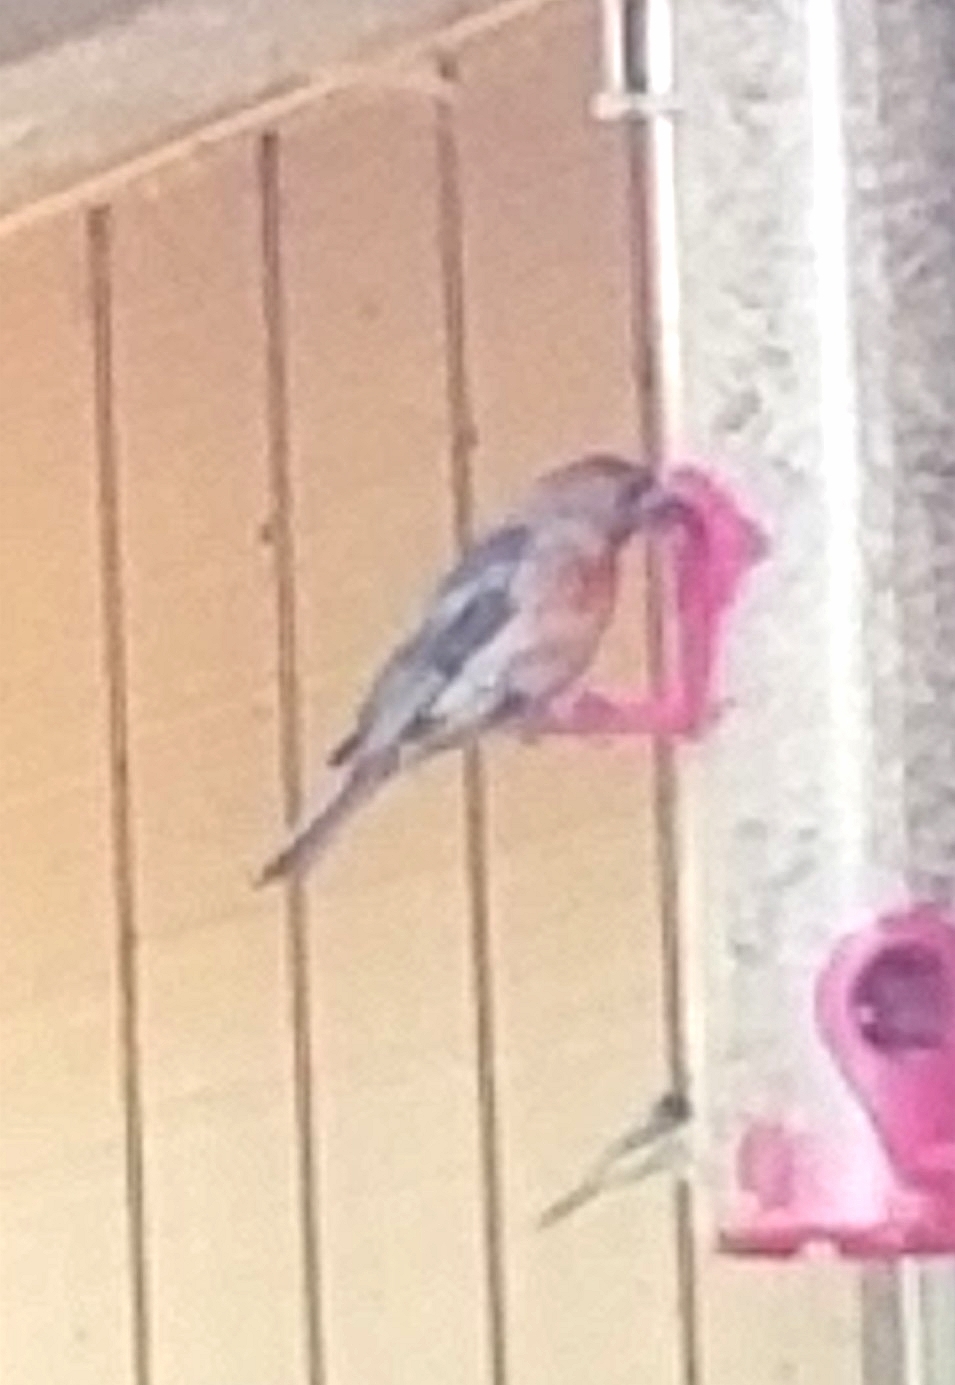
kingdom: Animalia
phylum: Chordata
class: Aves
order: Passeriformes
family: Fringillidae
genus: Haemorhous
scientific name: Haemorhous mexicanus
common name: House finch
